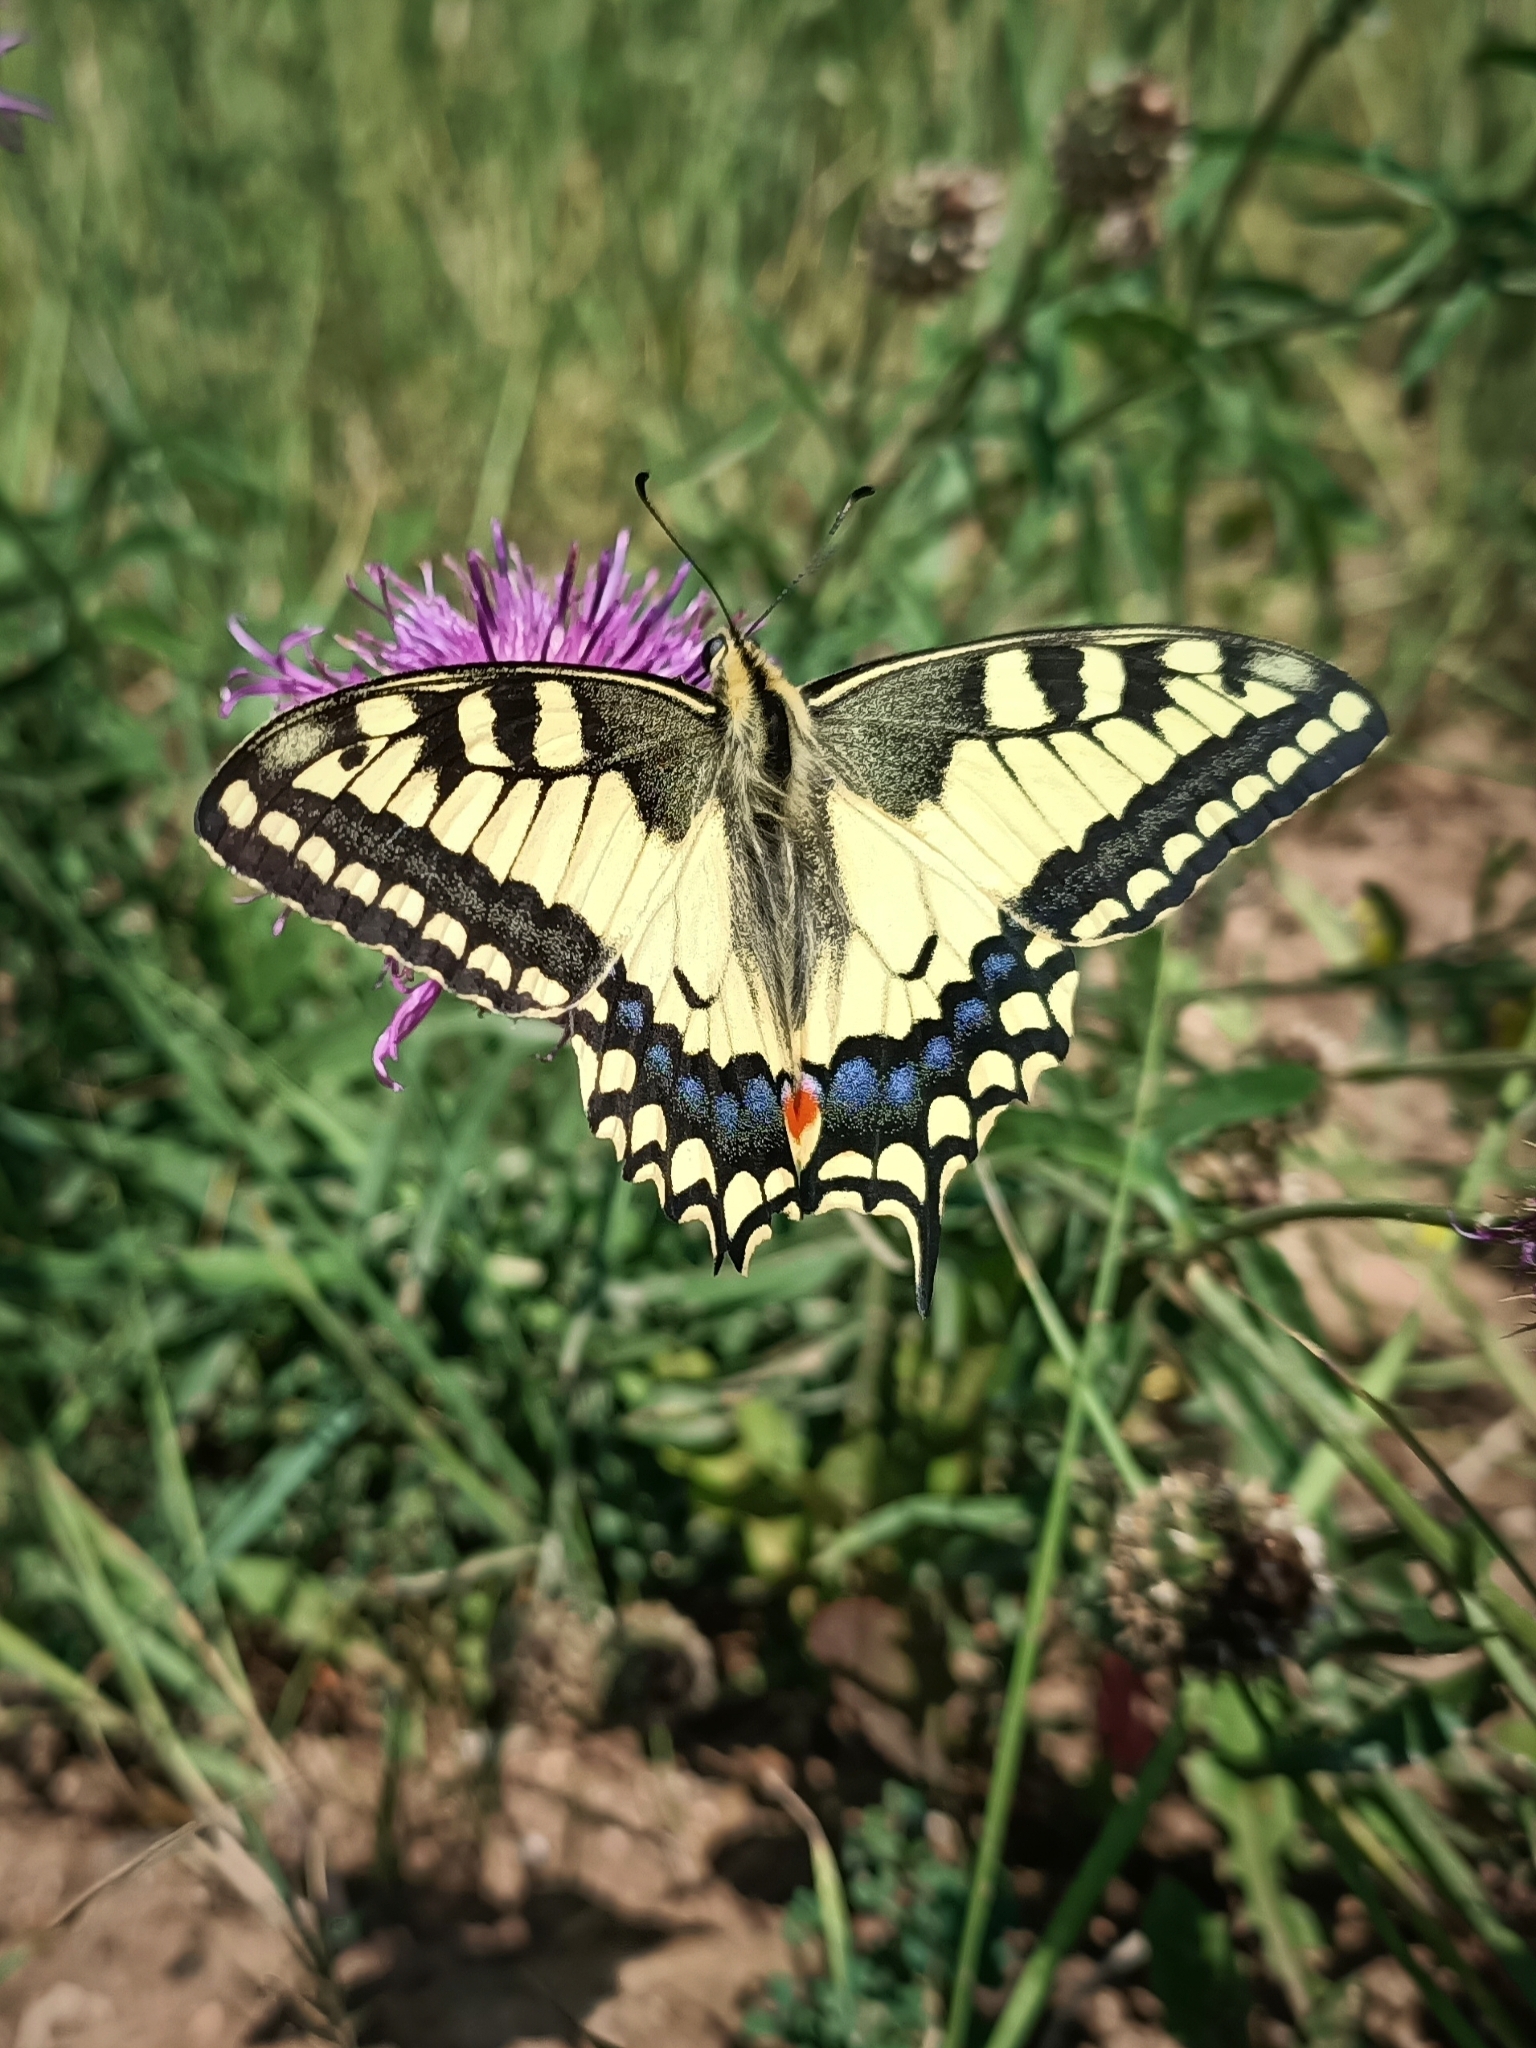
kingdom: Animalia
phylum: Arthropoda
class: Insecta
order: Lepidoptera
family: Papilionidae
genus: Papilio
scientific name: Papilio machaon
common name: Swallowtail
